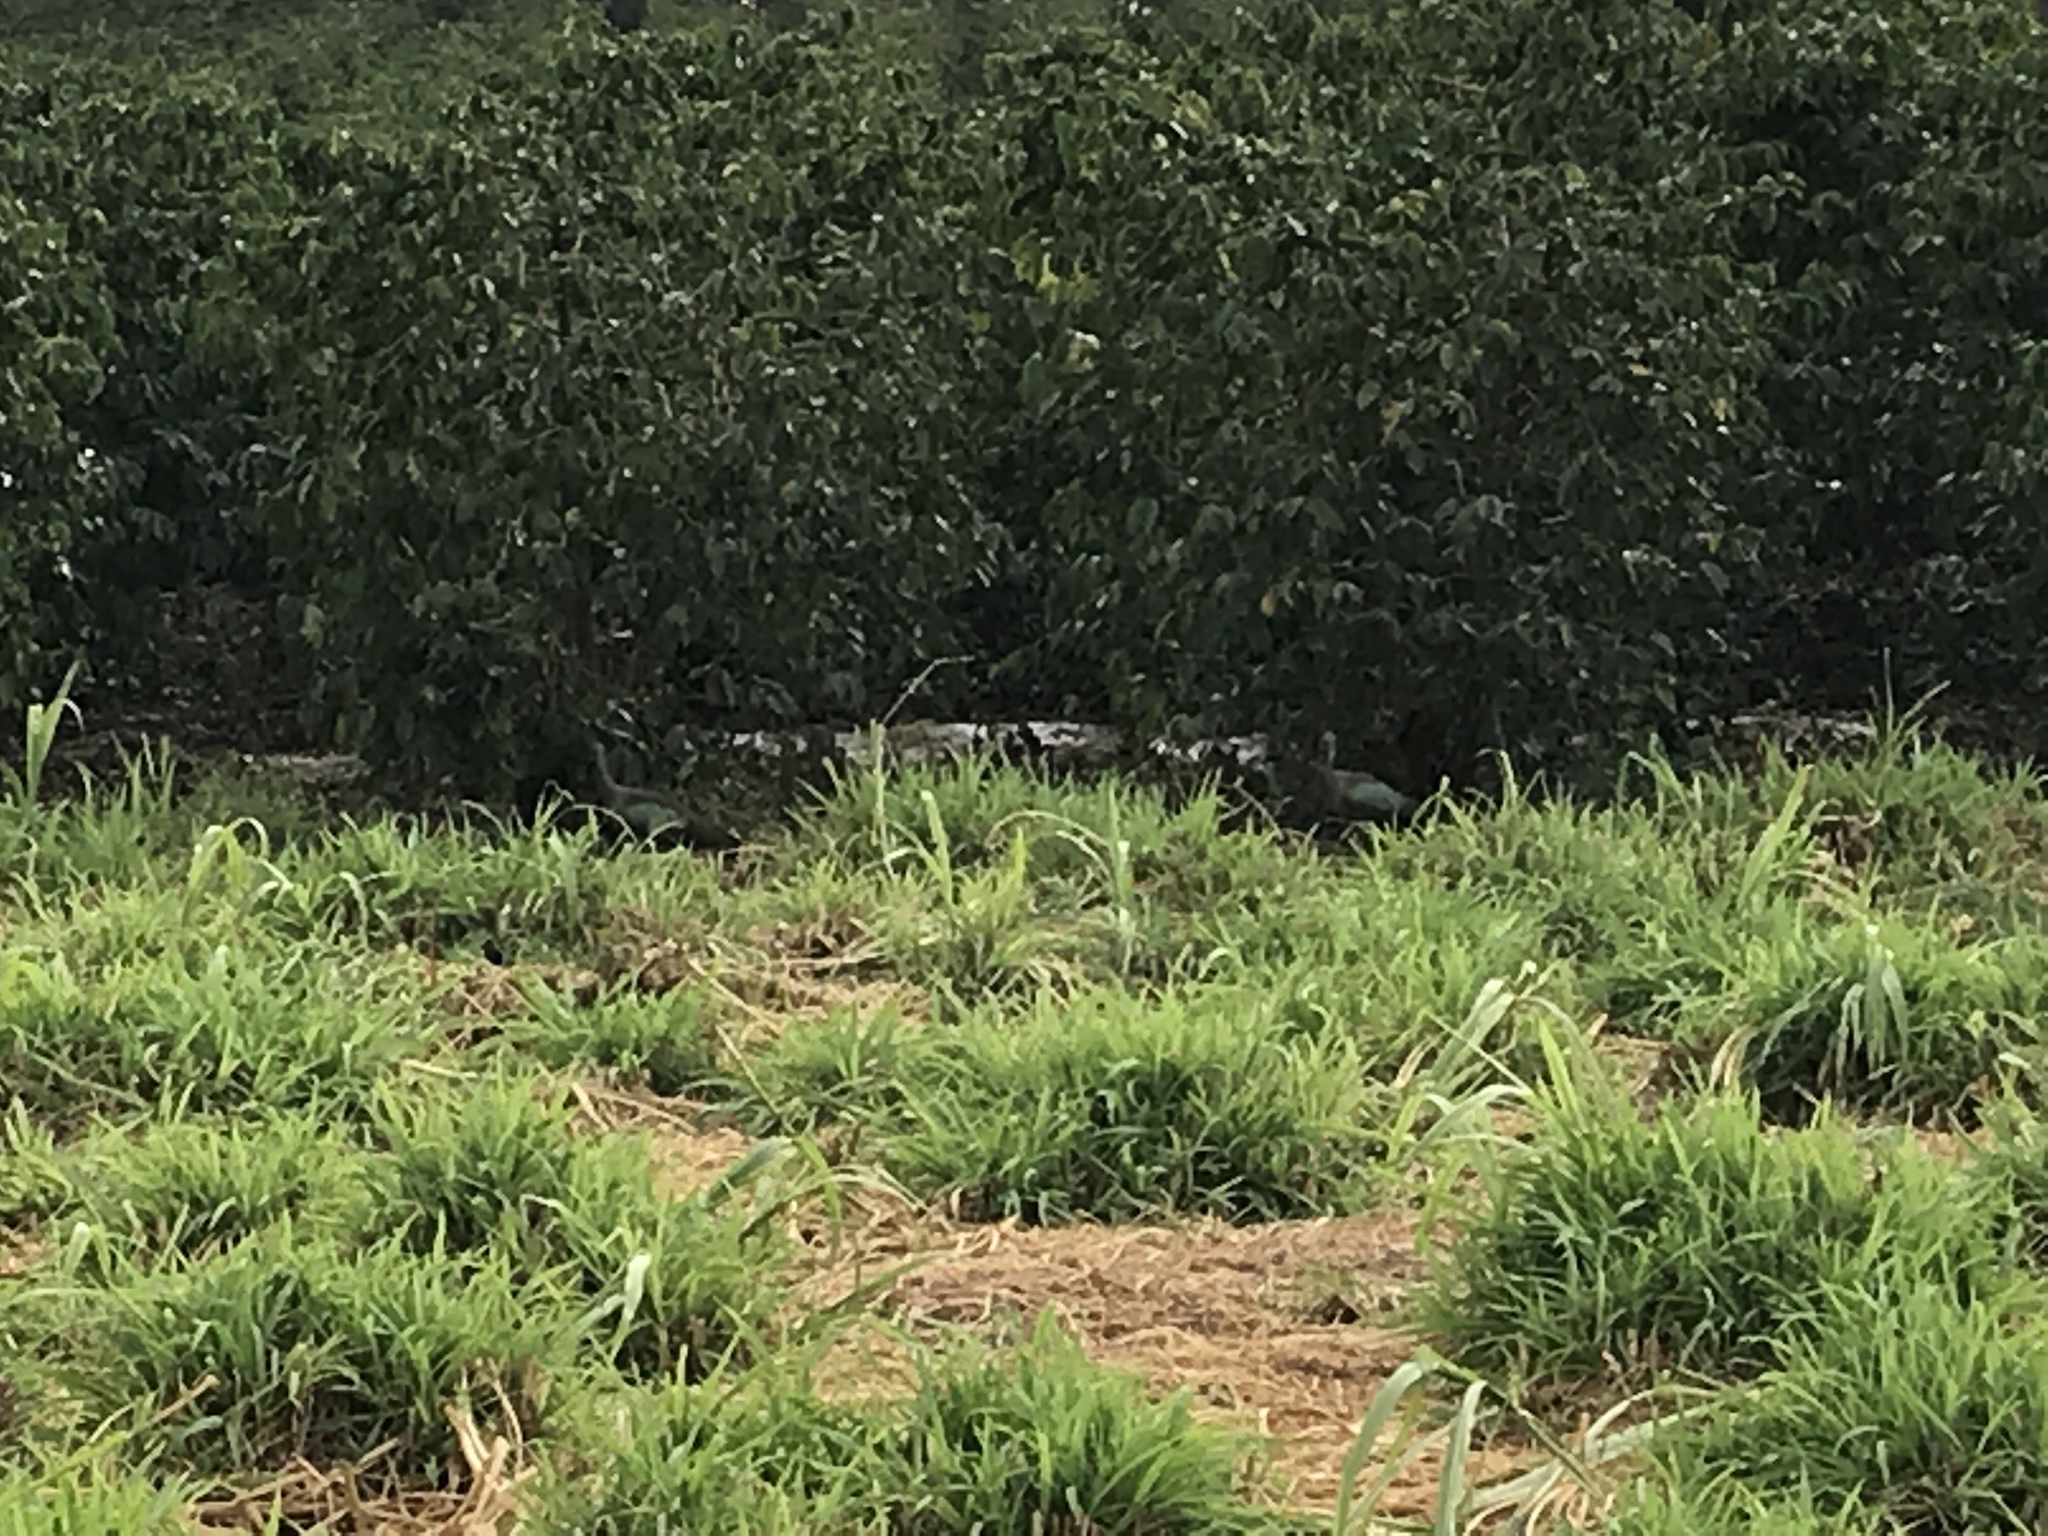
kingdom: Animalia
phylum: Chordata
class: Aves
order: Pelecaniformes
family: Threskiornithidae
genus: Bostrychia
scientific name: Bostrychia hagedash
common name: Hadada ibis
